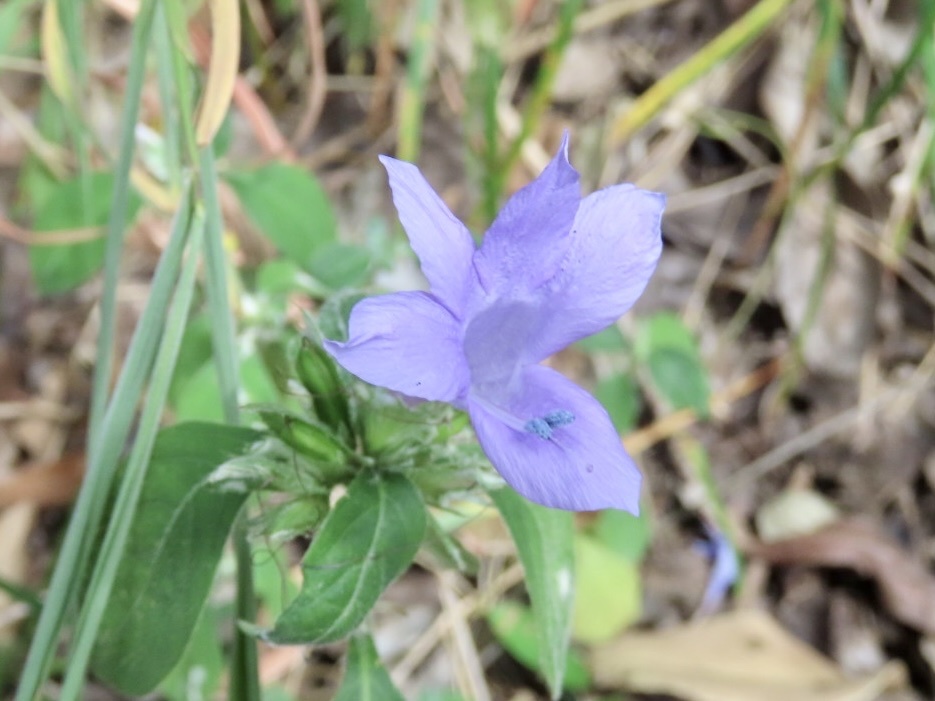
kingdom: Plantae
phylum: Tracheophyta
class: Magnoliopsida
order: Lamiales
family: Acanthaceae
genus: Barleria
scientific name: Barleria cristata
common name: Crested philippine violet
